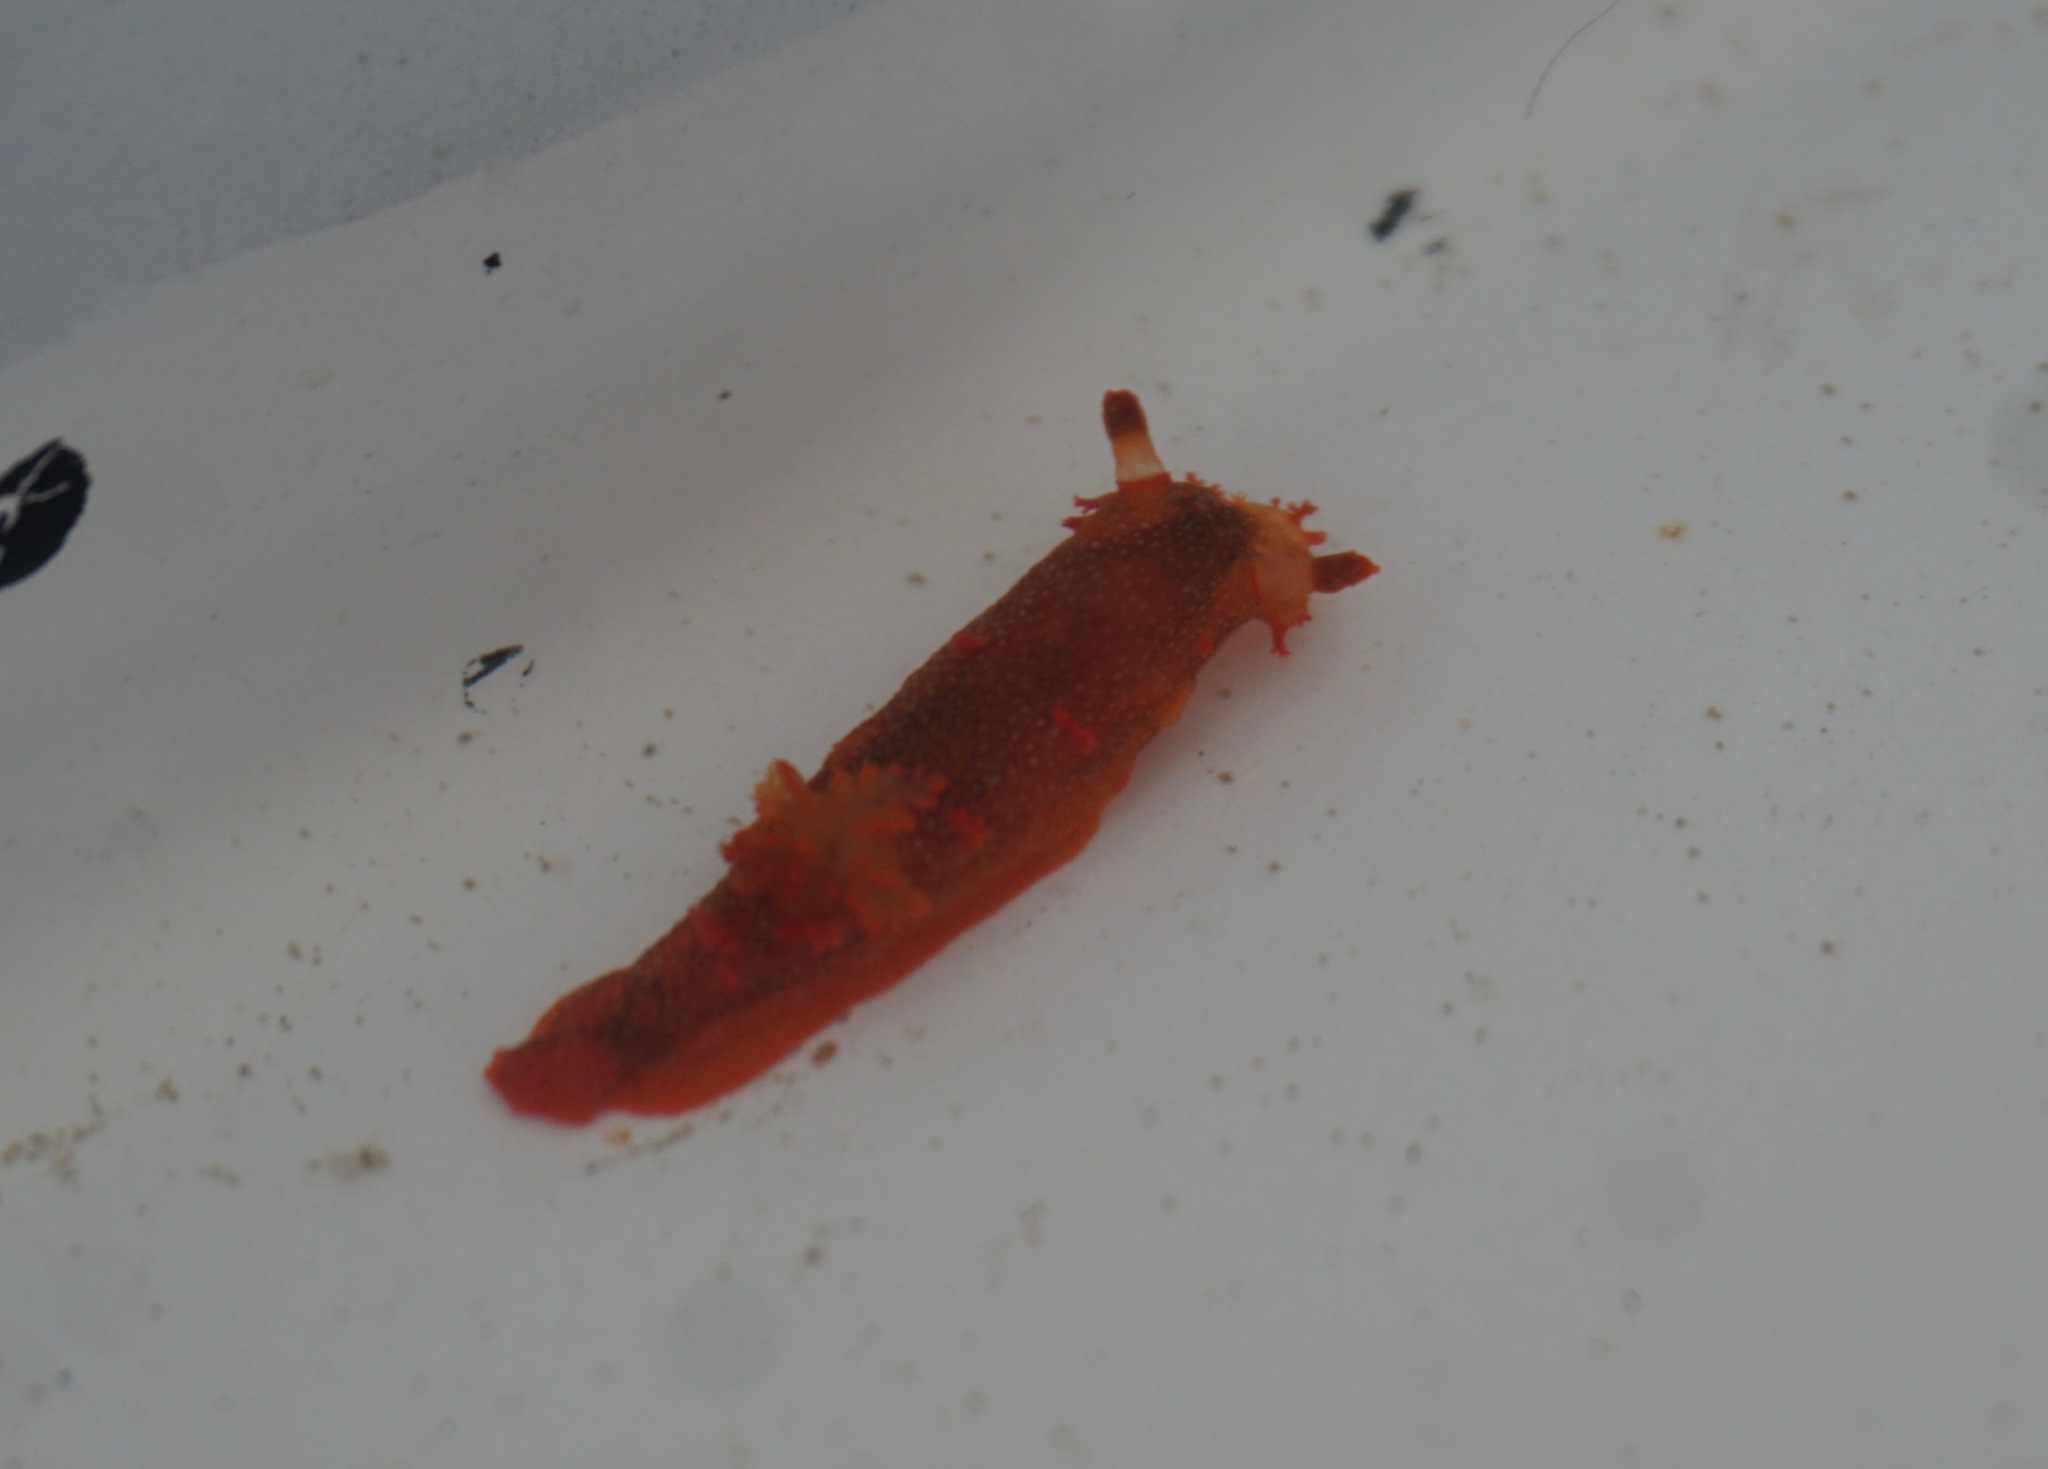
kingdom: Animalia
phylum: Mollusca
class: Gastropoda
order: Nudibranchia
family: Polyceridae
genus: Triopha
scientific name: Triopha maculata
